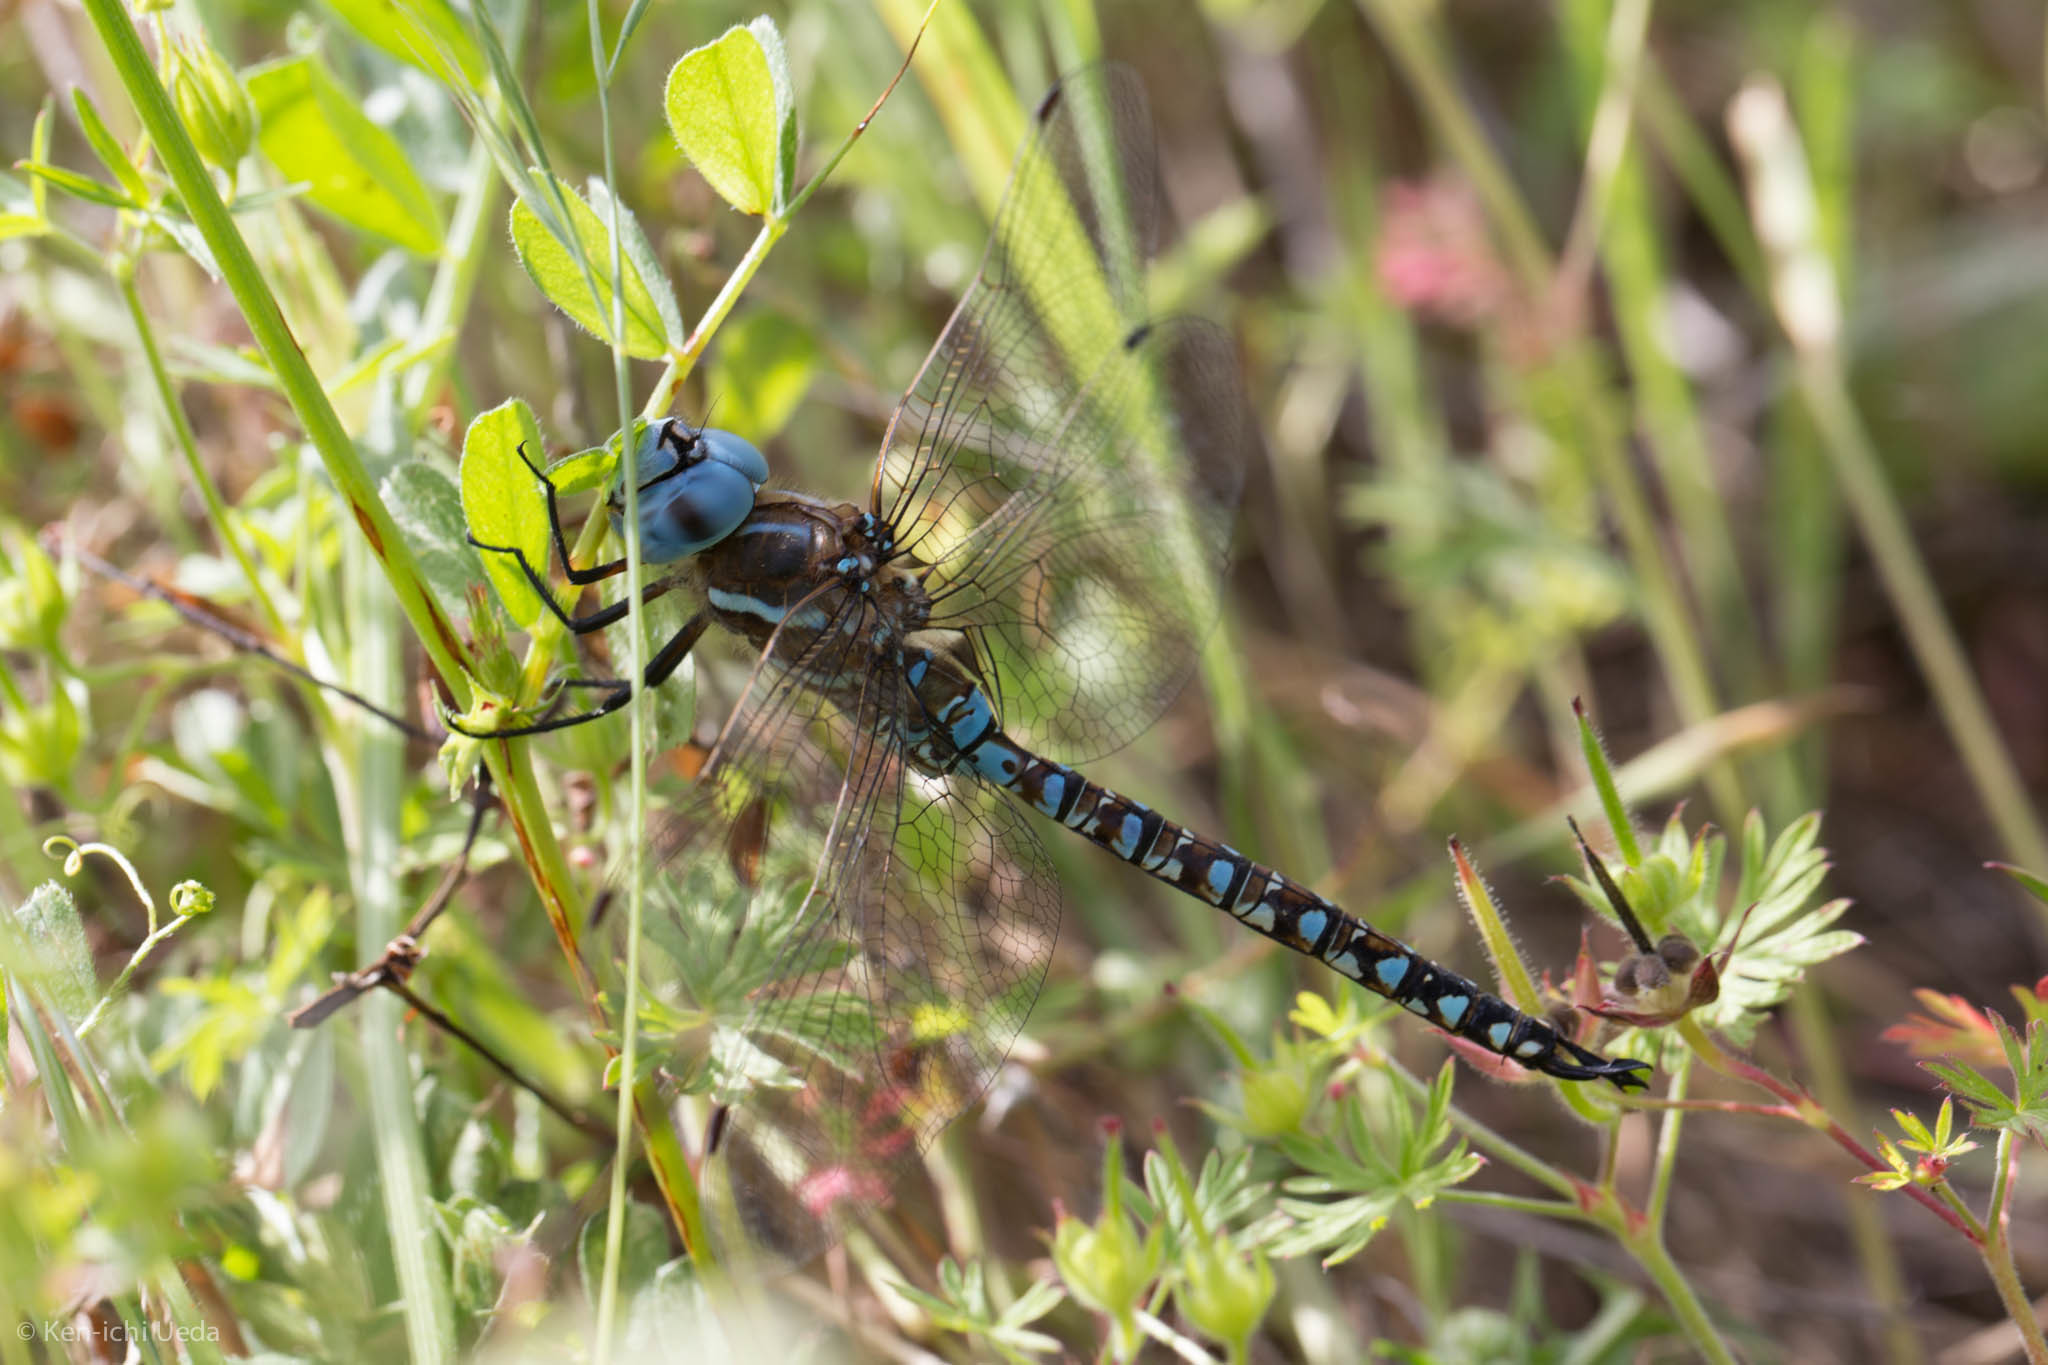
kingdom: Animalia
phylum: Arthropoda
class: Insecta
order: Odonata
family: Aeshnidae
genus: Rhionaeschna
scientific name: Rhionaeschna multicolor
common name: Blue-eyed darner
